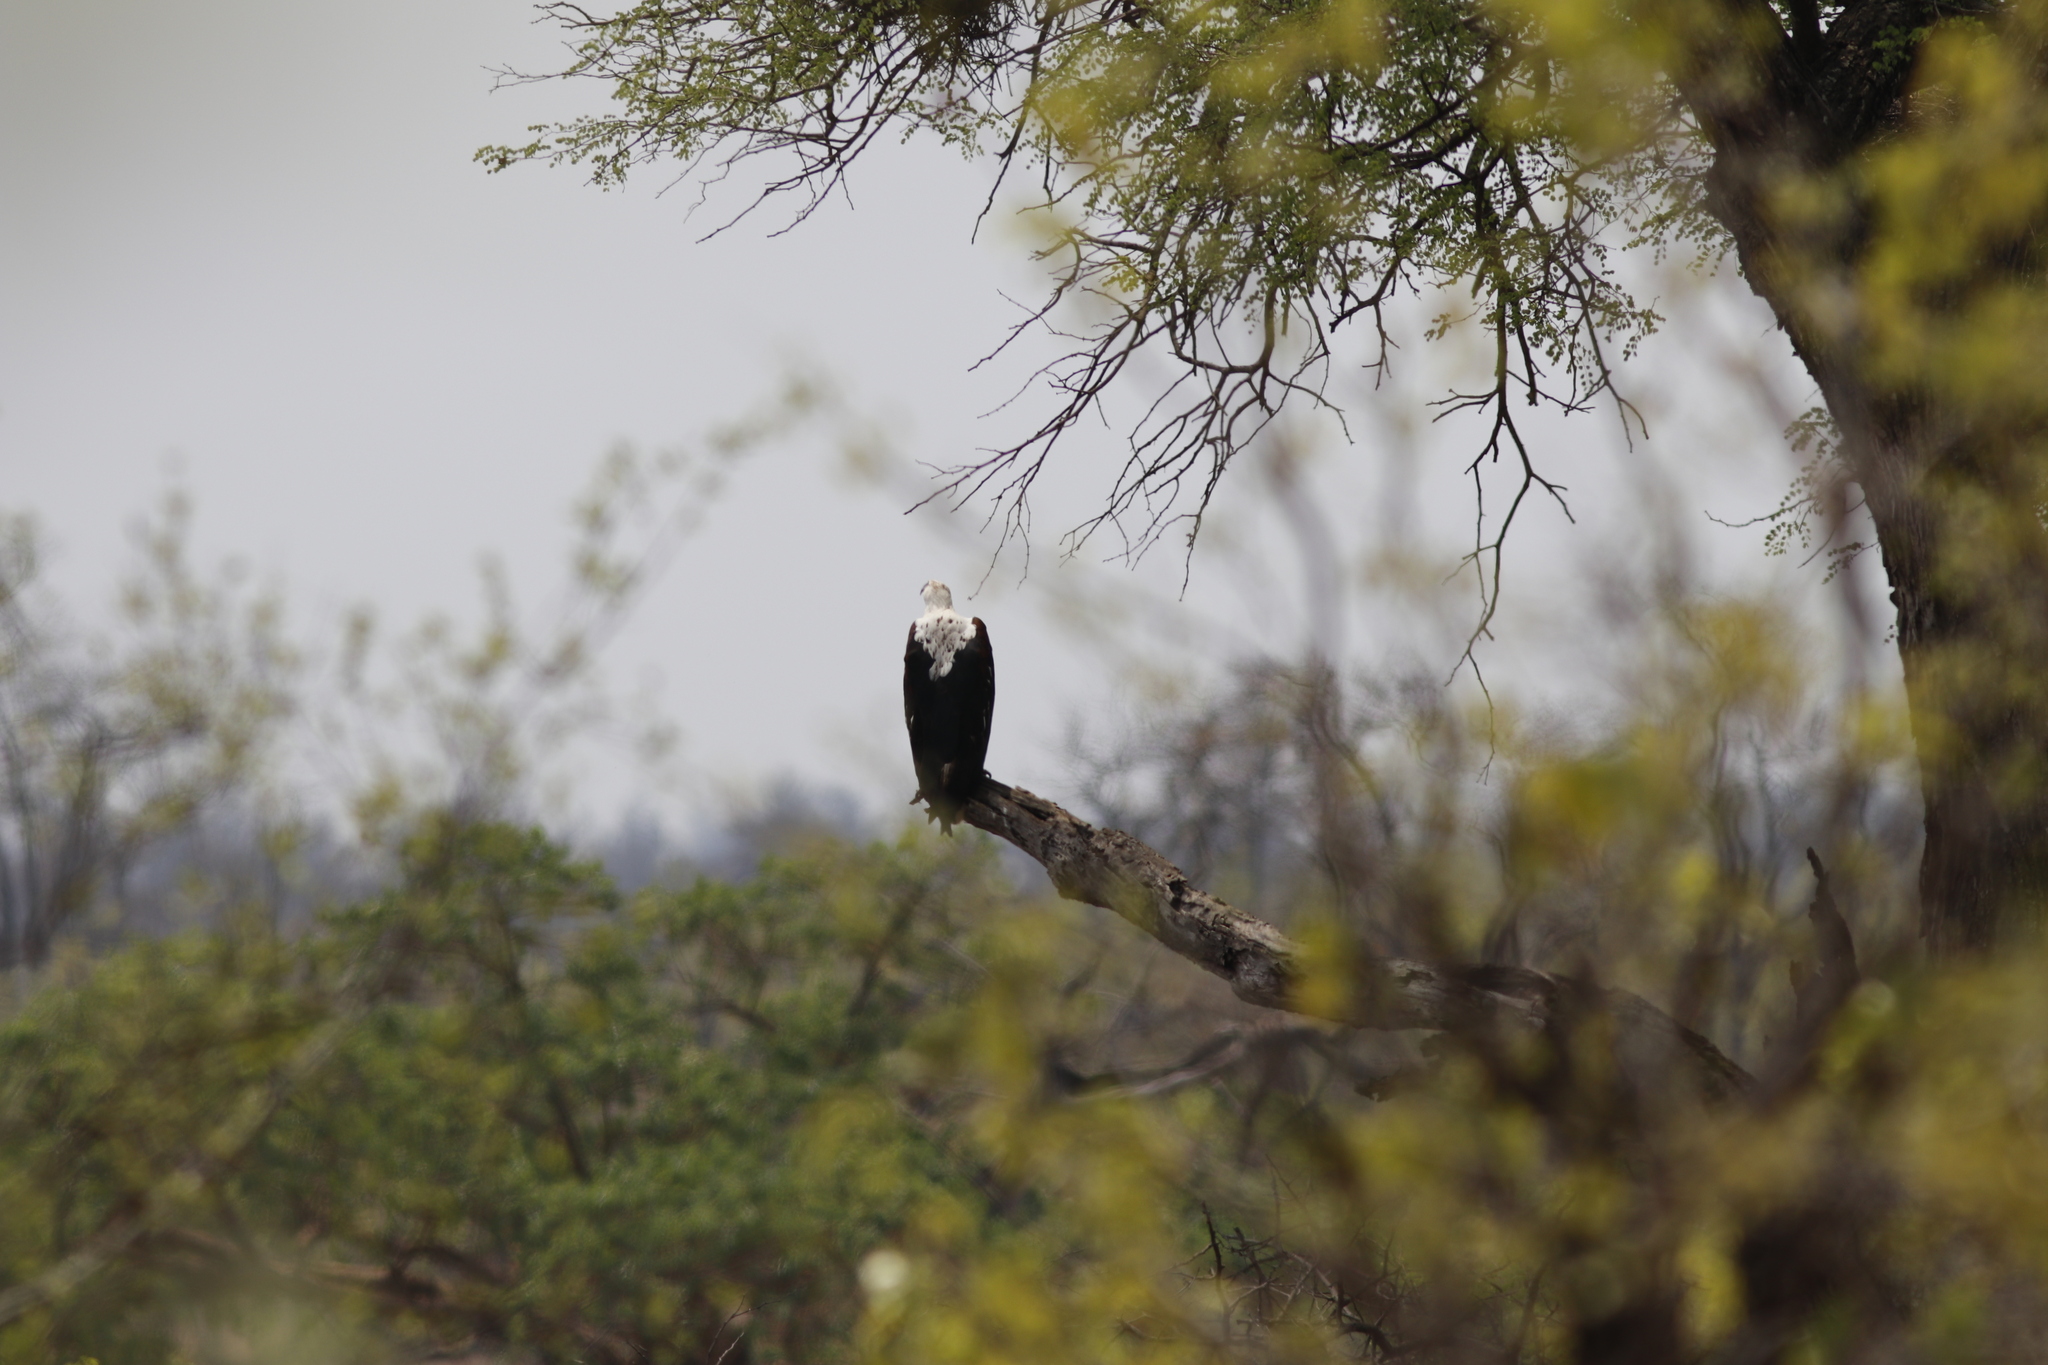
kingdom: Animalia
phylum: Chordata
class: Aves
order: Accipitriformes
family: Accipitridae
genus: Haliaeetus
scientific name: Haliaeetus vocifer
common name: African fish eagle
